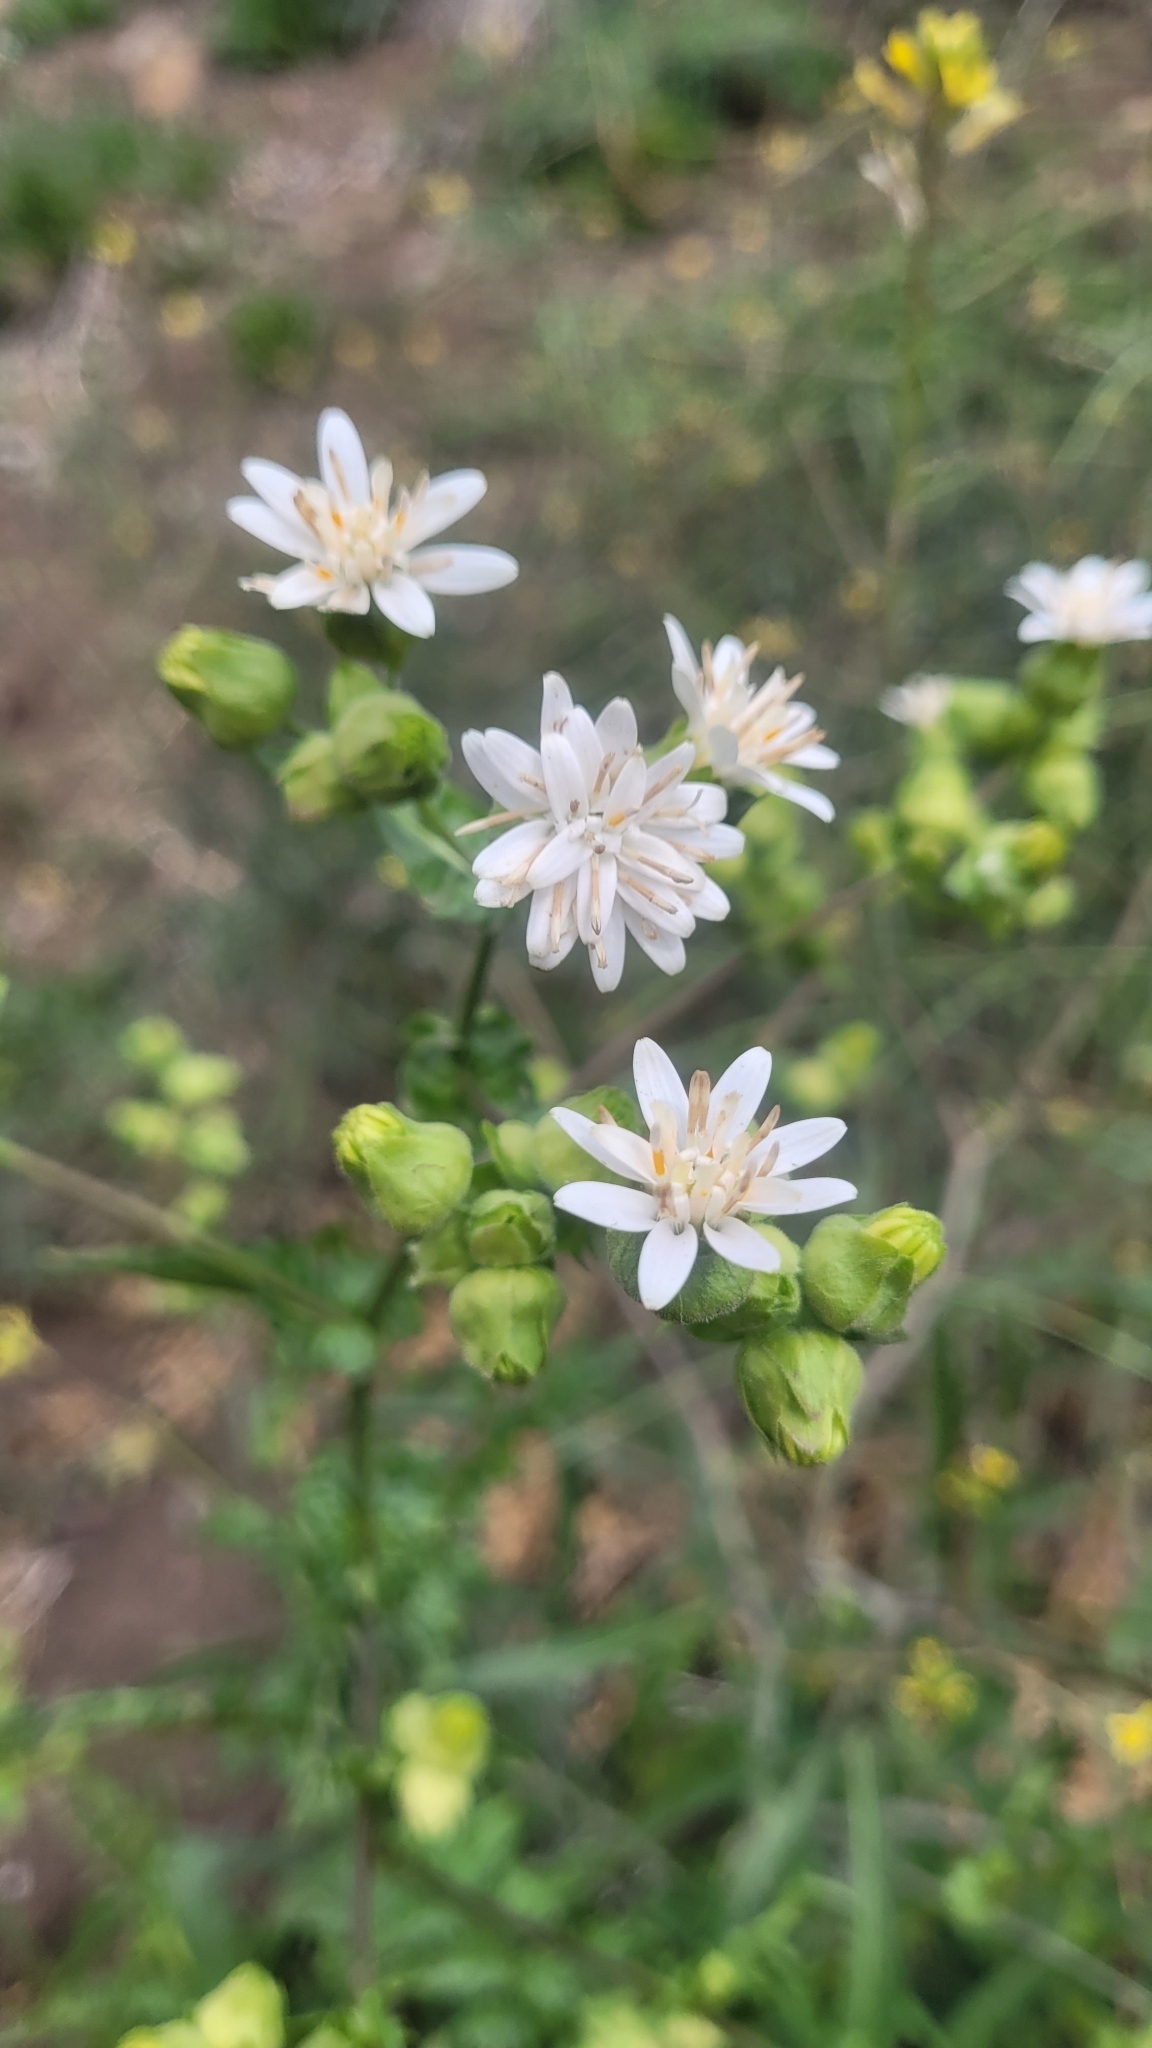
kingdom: Plantae
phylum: Tracheophyta
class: Magnoliopsida
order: Asterales
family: Asteraceae
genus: Moscharia
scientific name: Moscharia pinnatifida
